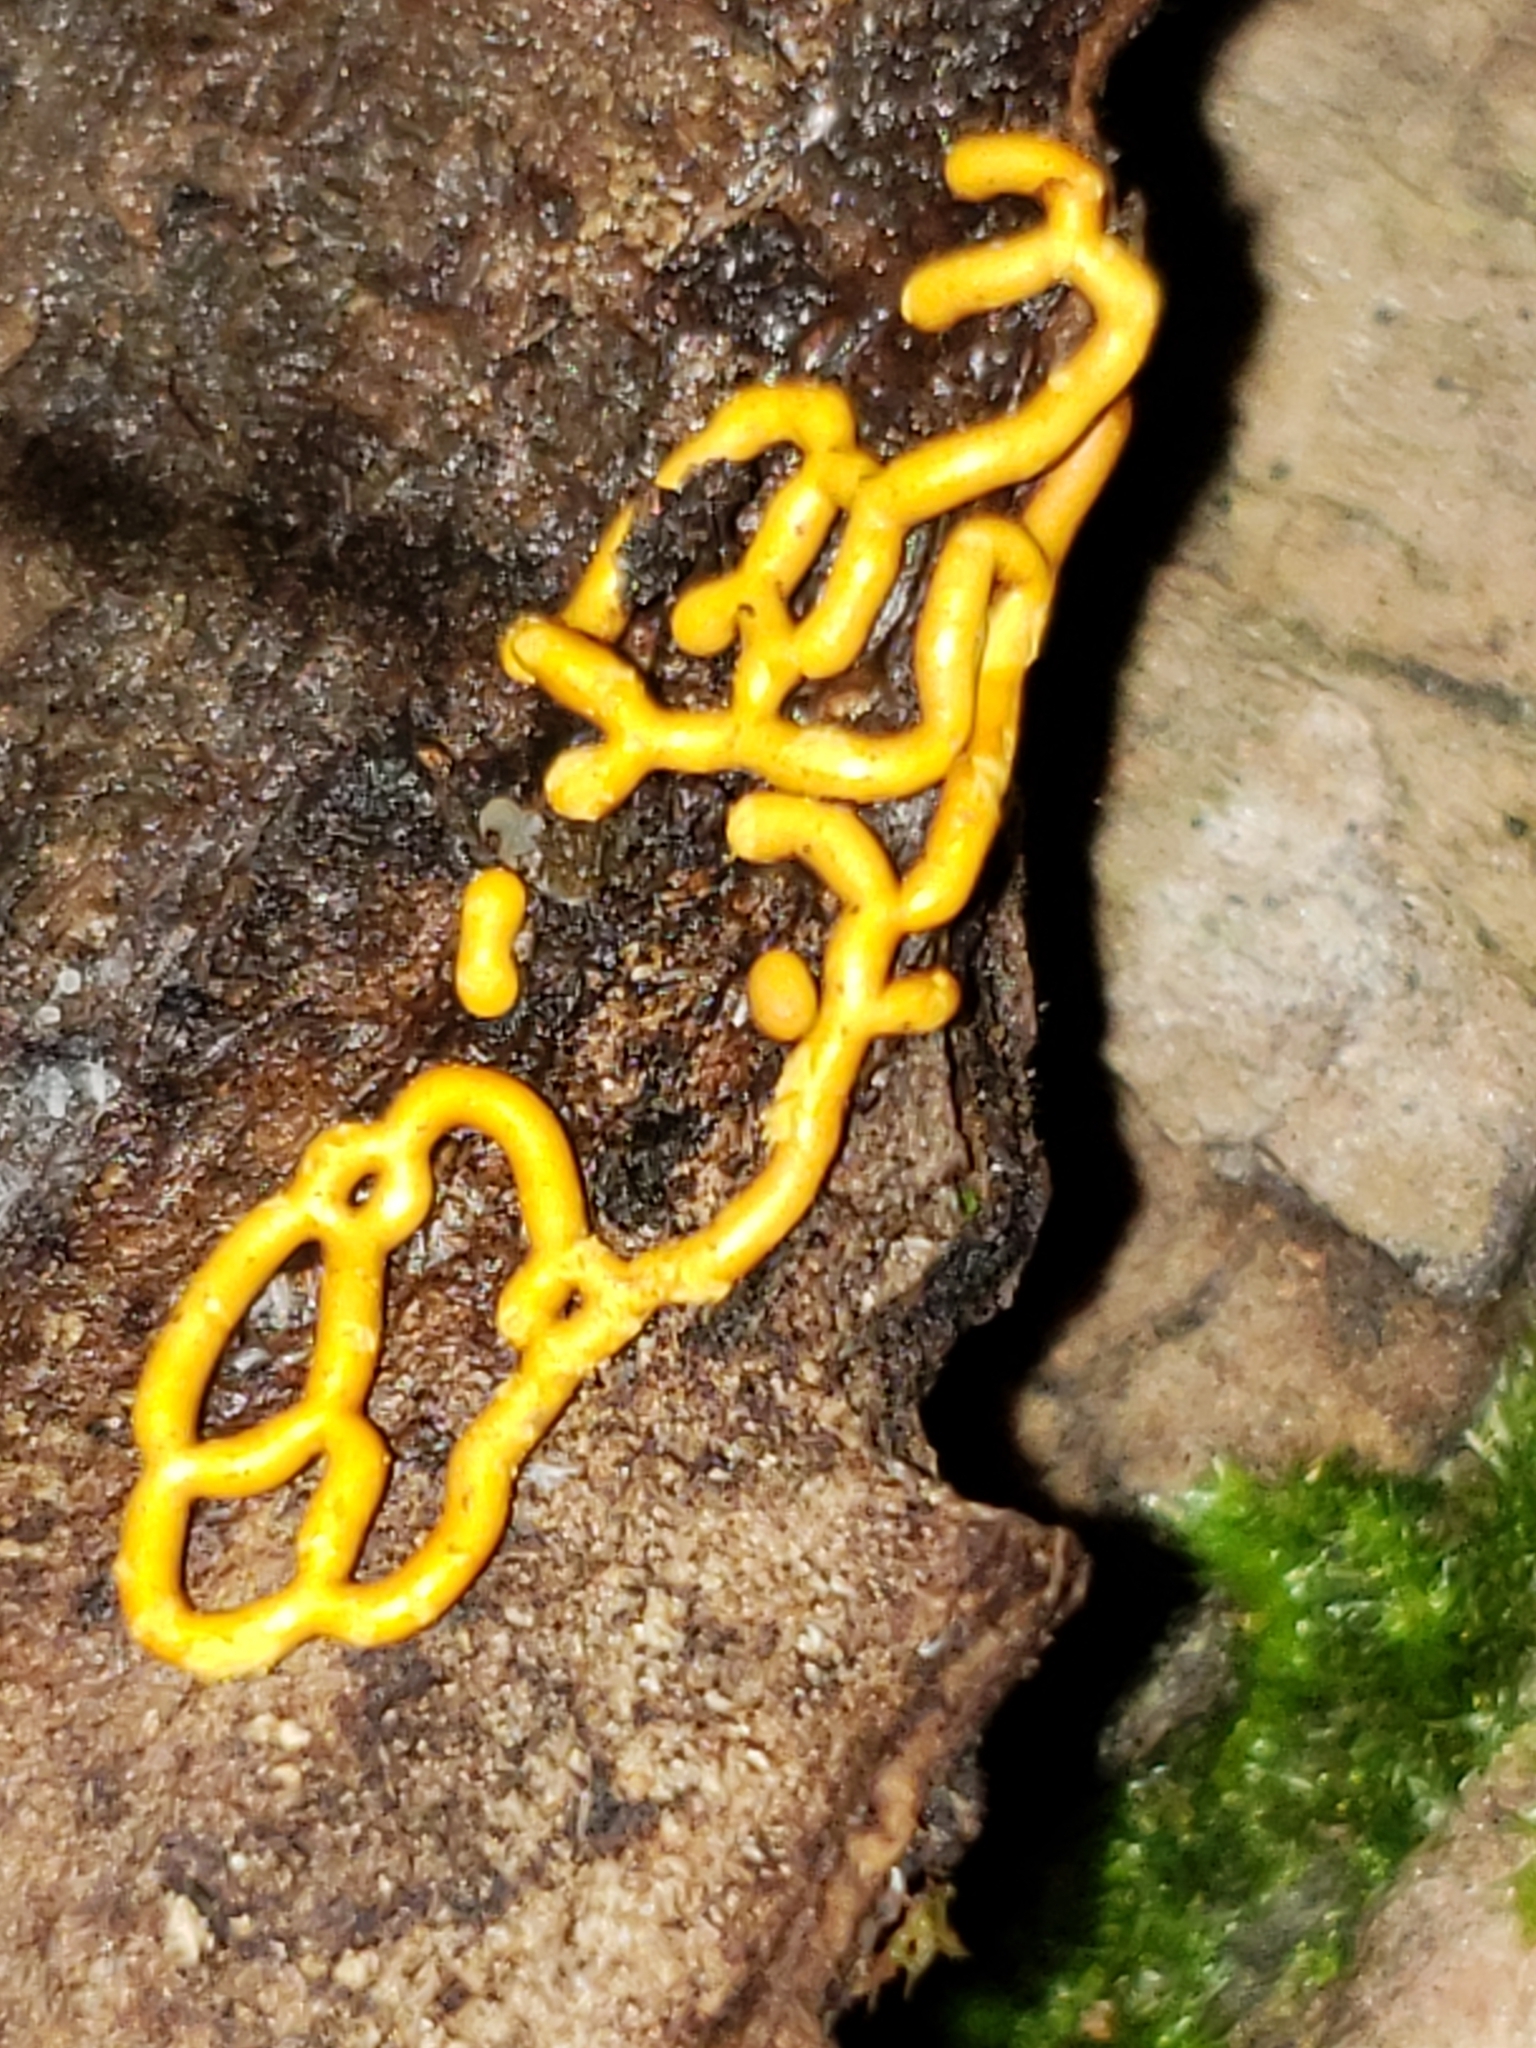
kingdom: Protozoa
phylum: Mycetozoa
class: Myxomycetes
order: Trichiales
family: Arcyriaceae
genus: Hemitrichia
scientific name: Hemitrichia serpula
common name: Pretzel slime mold
